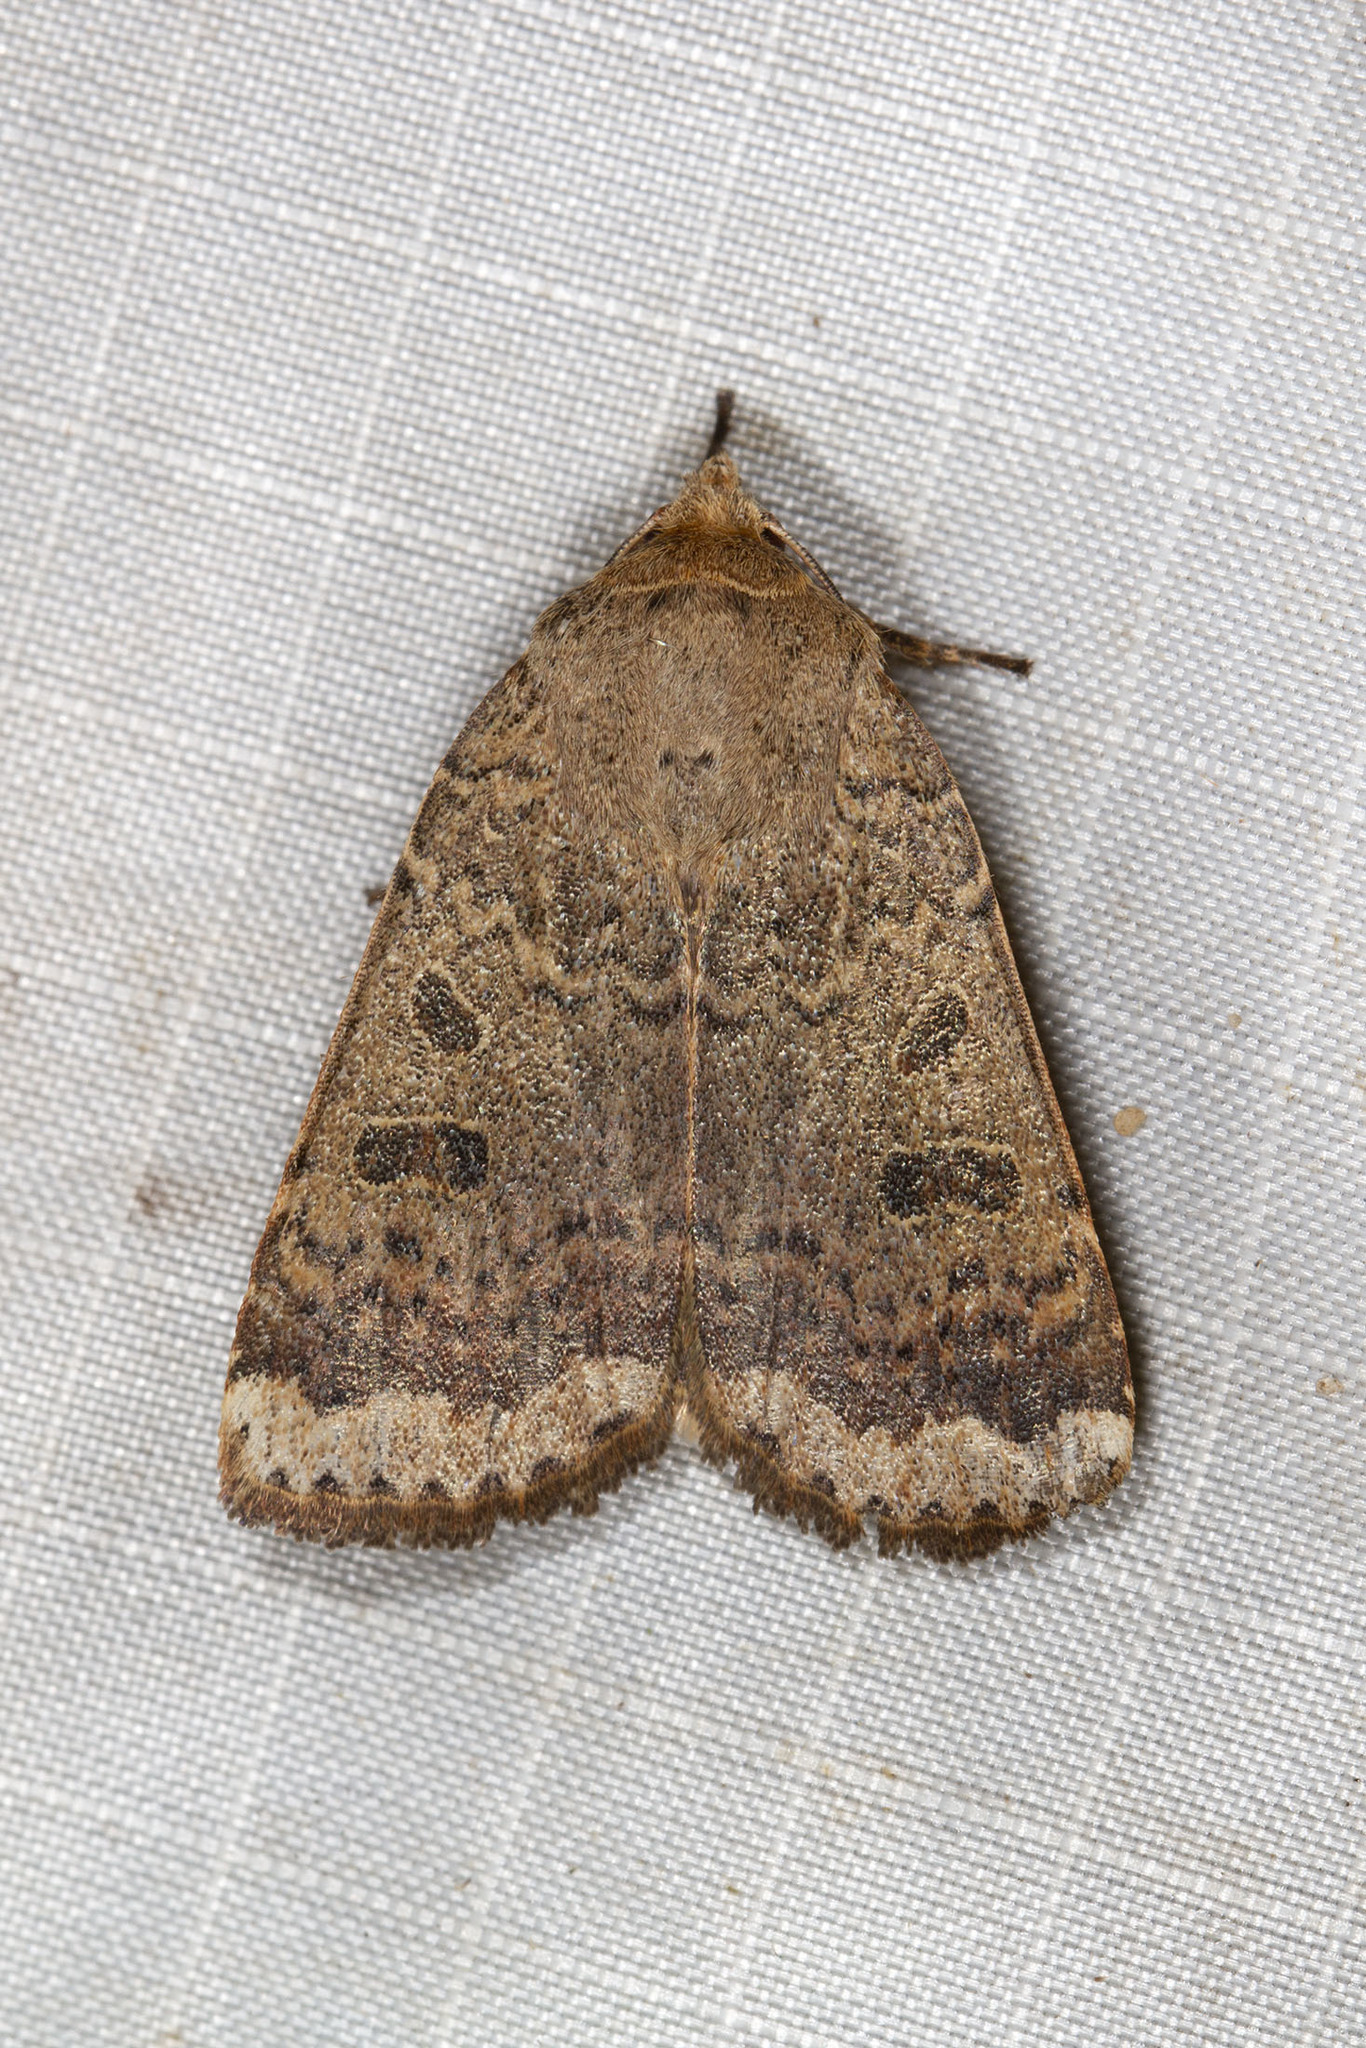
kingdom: Animalia
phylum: Arthropoda
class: Insecta
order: Lepidoptera
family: Noctuidae
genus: Abagrotis
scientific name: Abagrotis alternata
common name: Greater red dart
